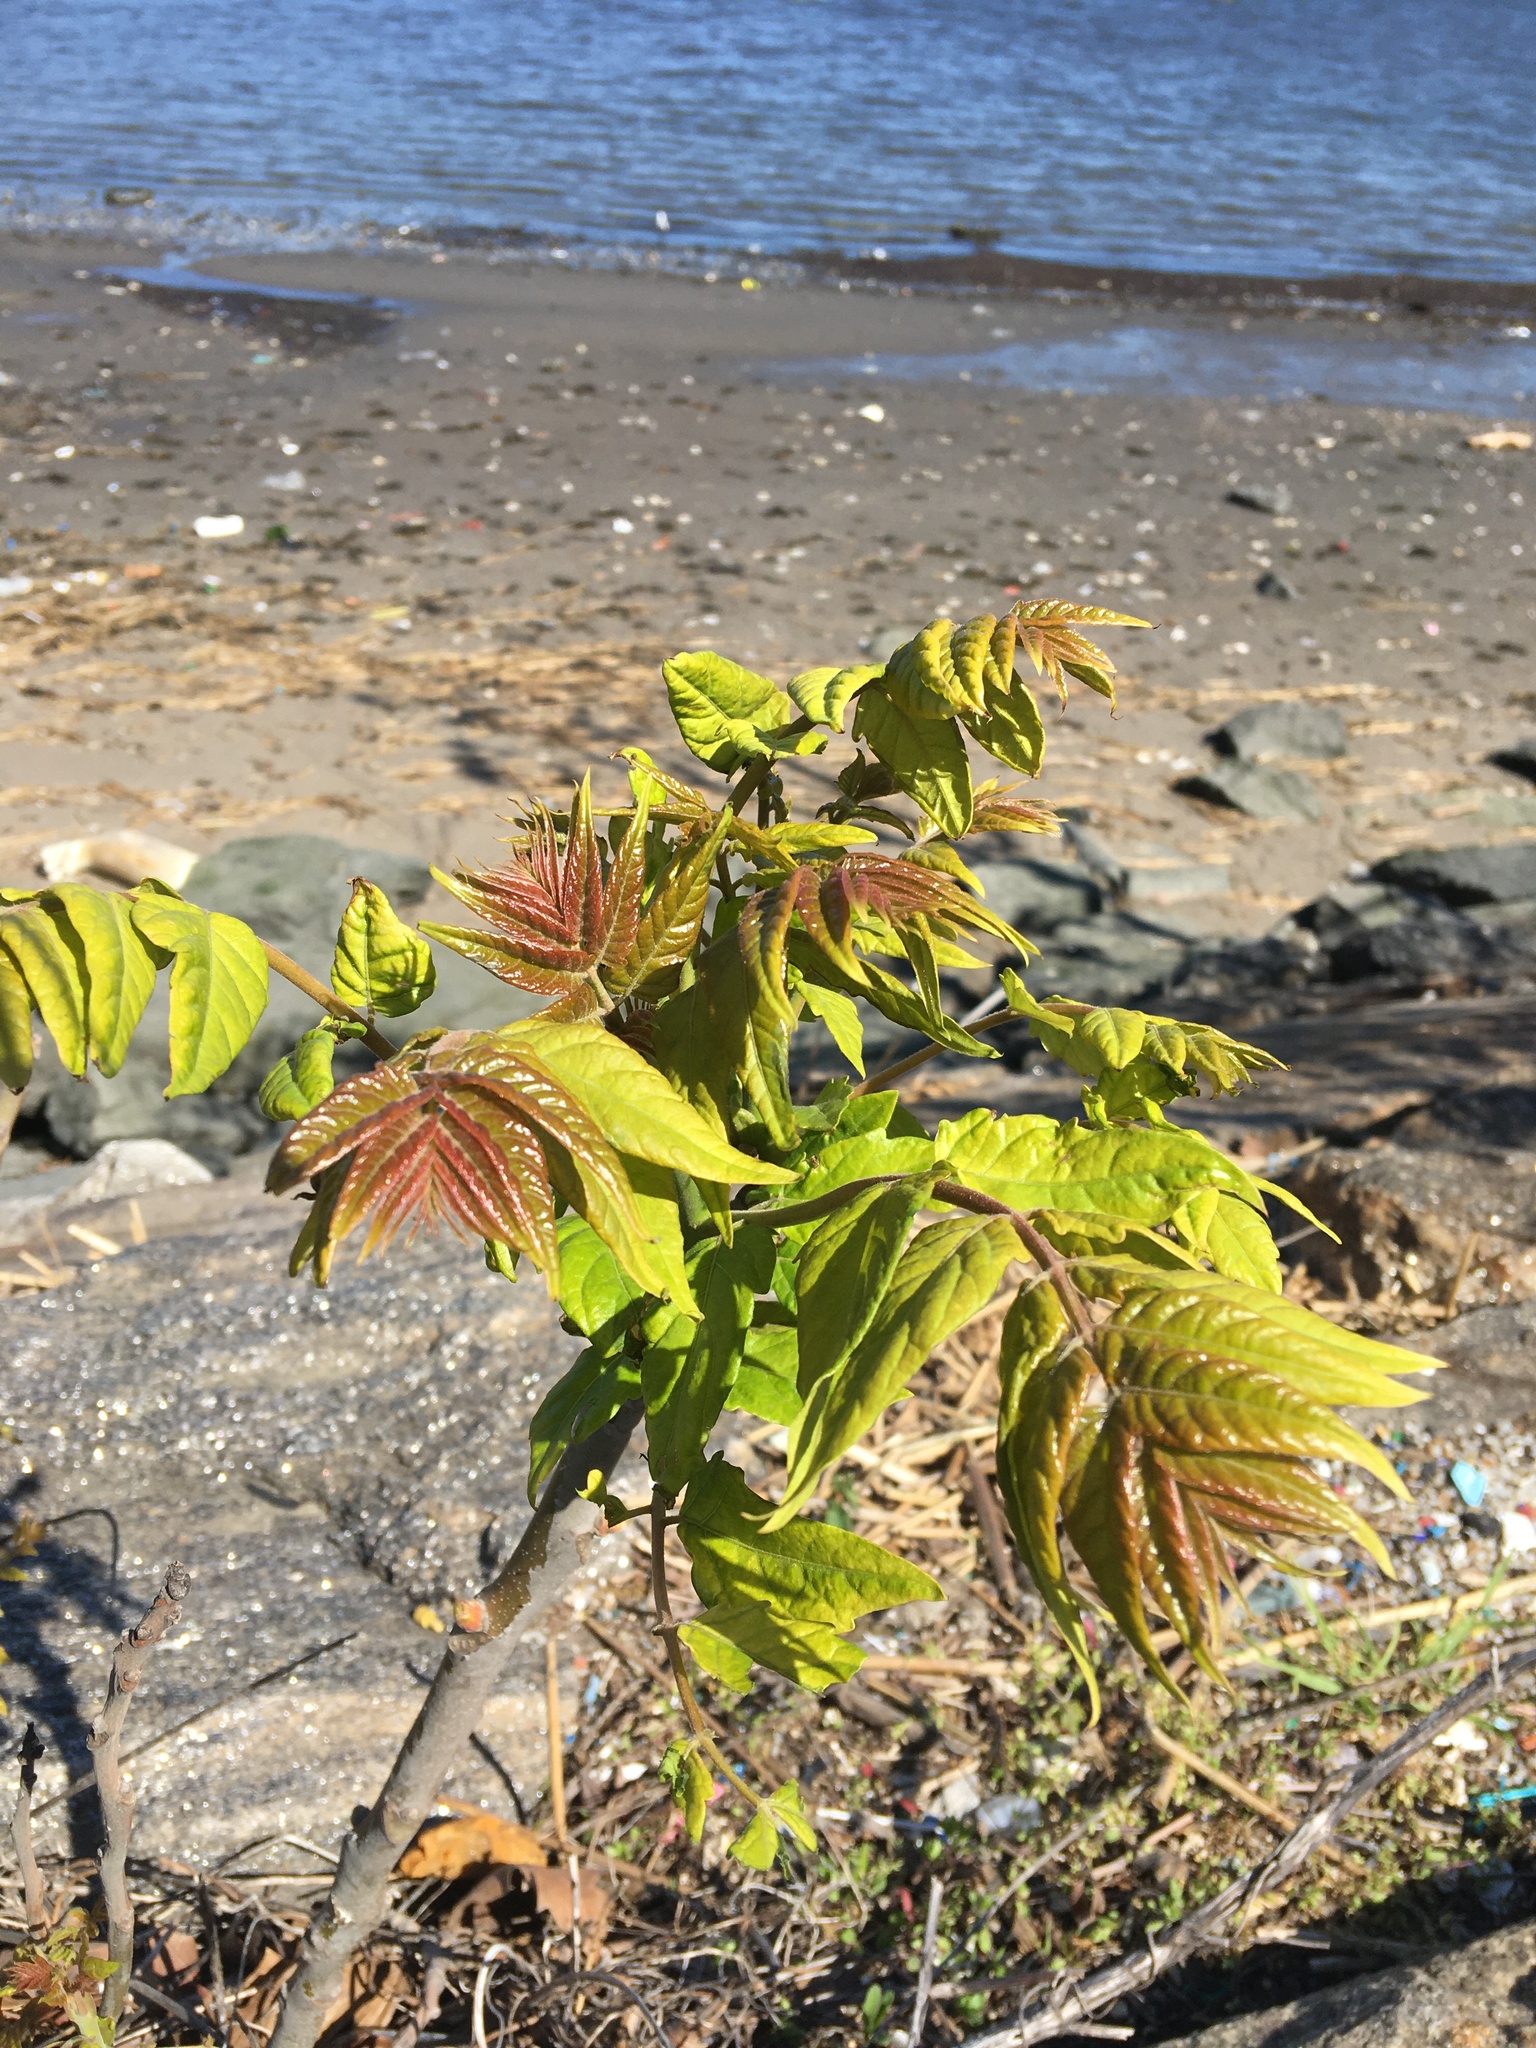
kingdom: Plantae
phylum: Tracheophyta
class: Magnoliopsida
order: Sapindales
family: Simaroubaceae
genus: Ailanthus
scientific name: Ailanthus altissima
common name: Tree-of-heaven
